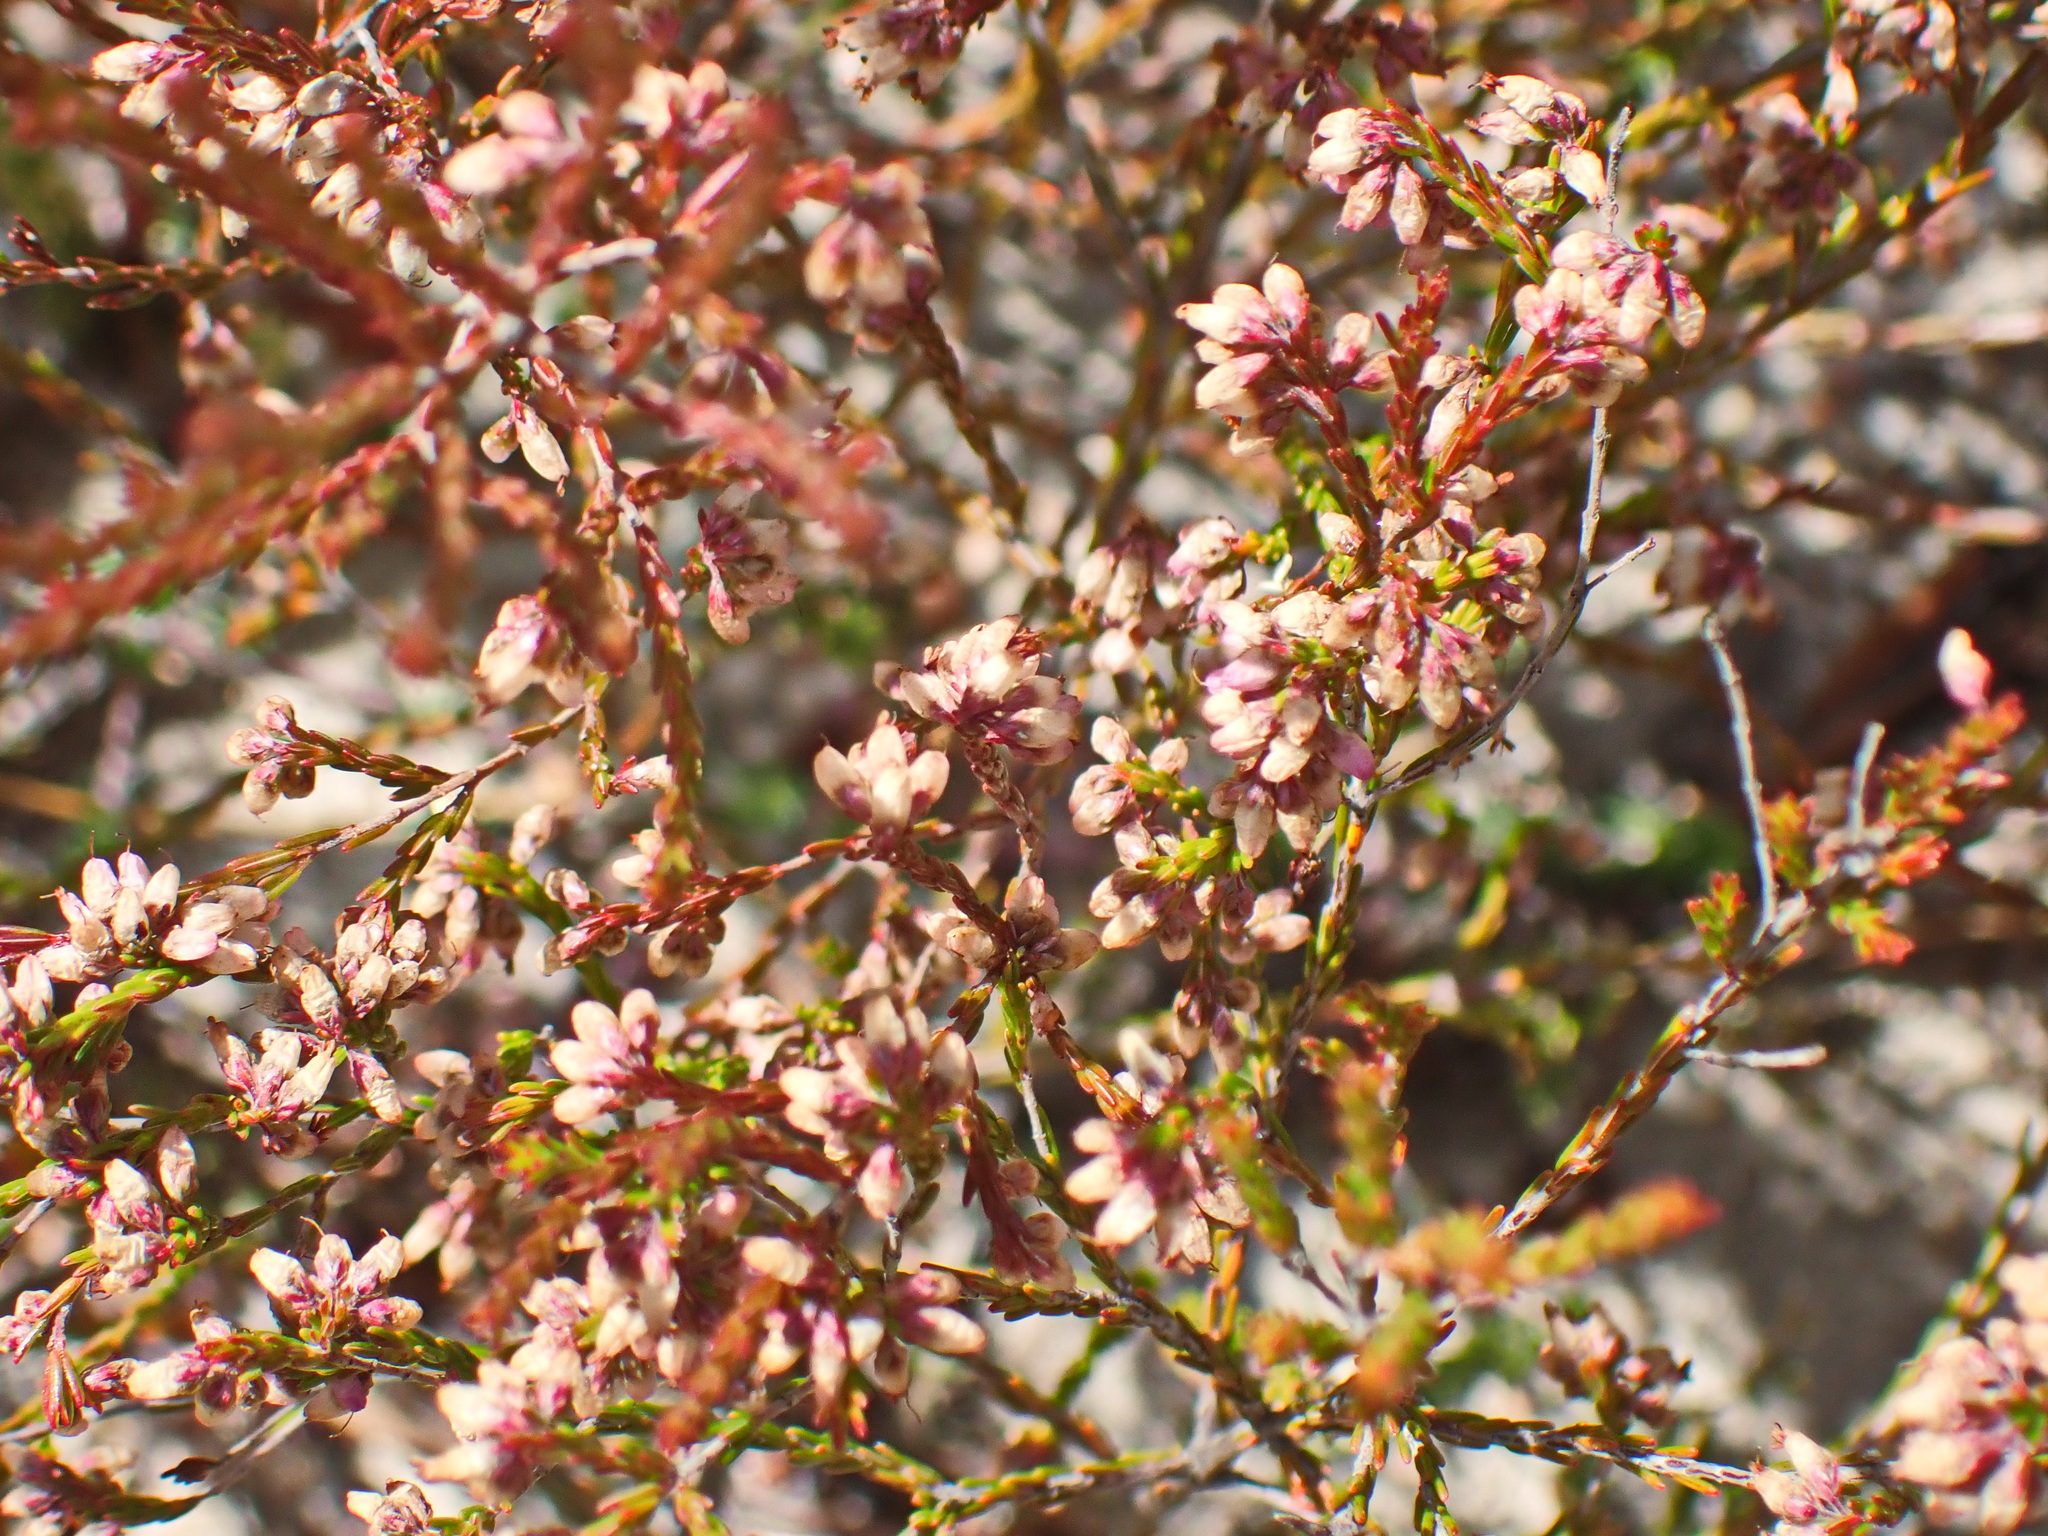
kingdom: Plantae
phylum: Tracheophyta
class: Magnoliopsida
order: Ericales
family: Ericaceae
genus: Erica
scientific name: Erica rosacea
